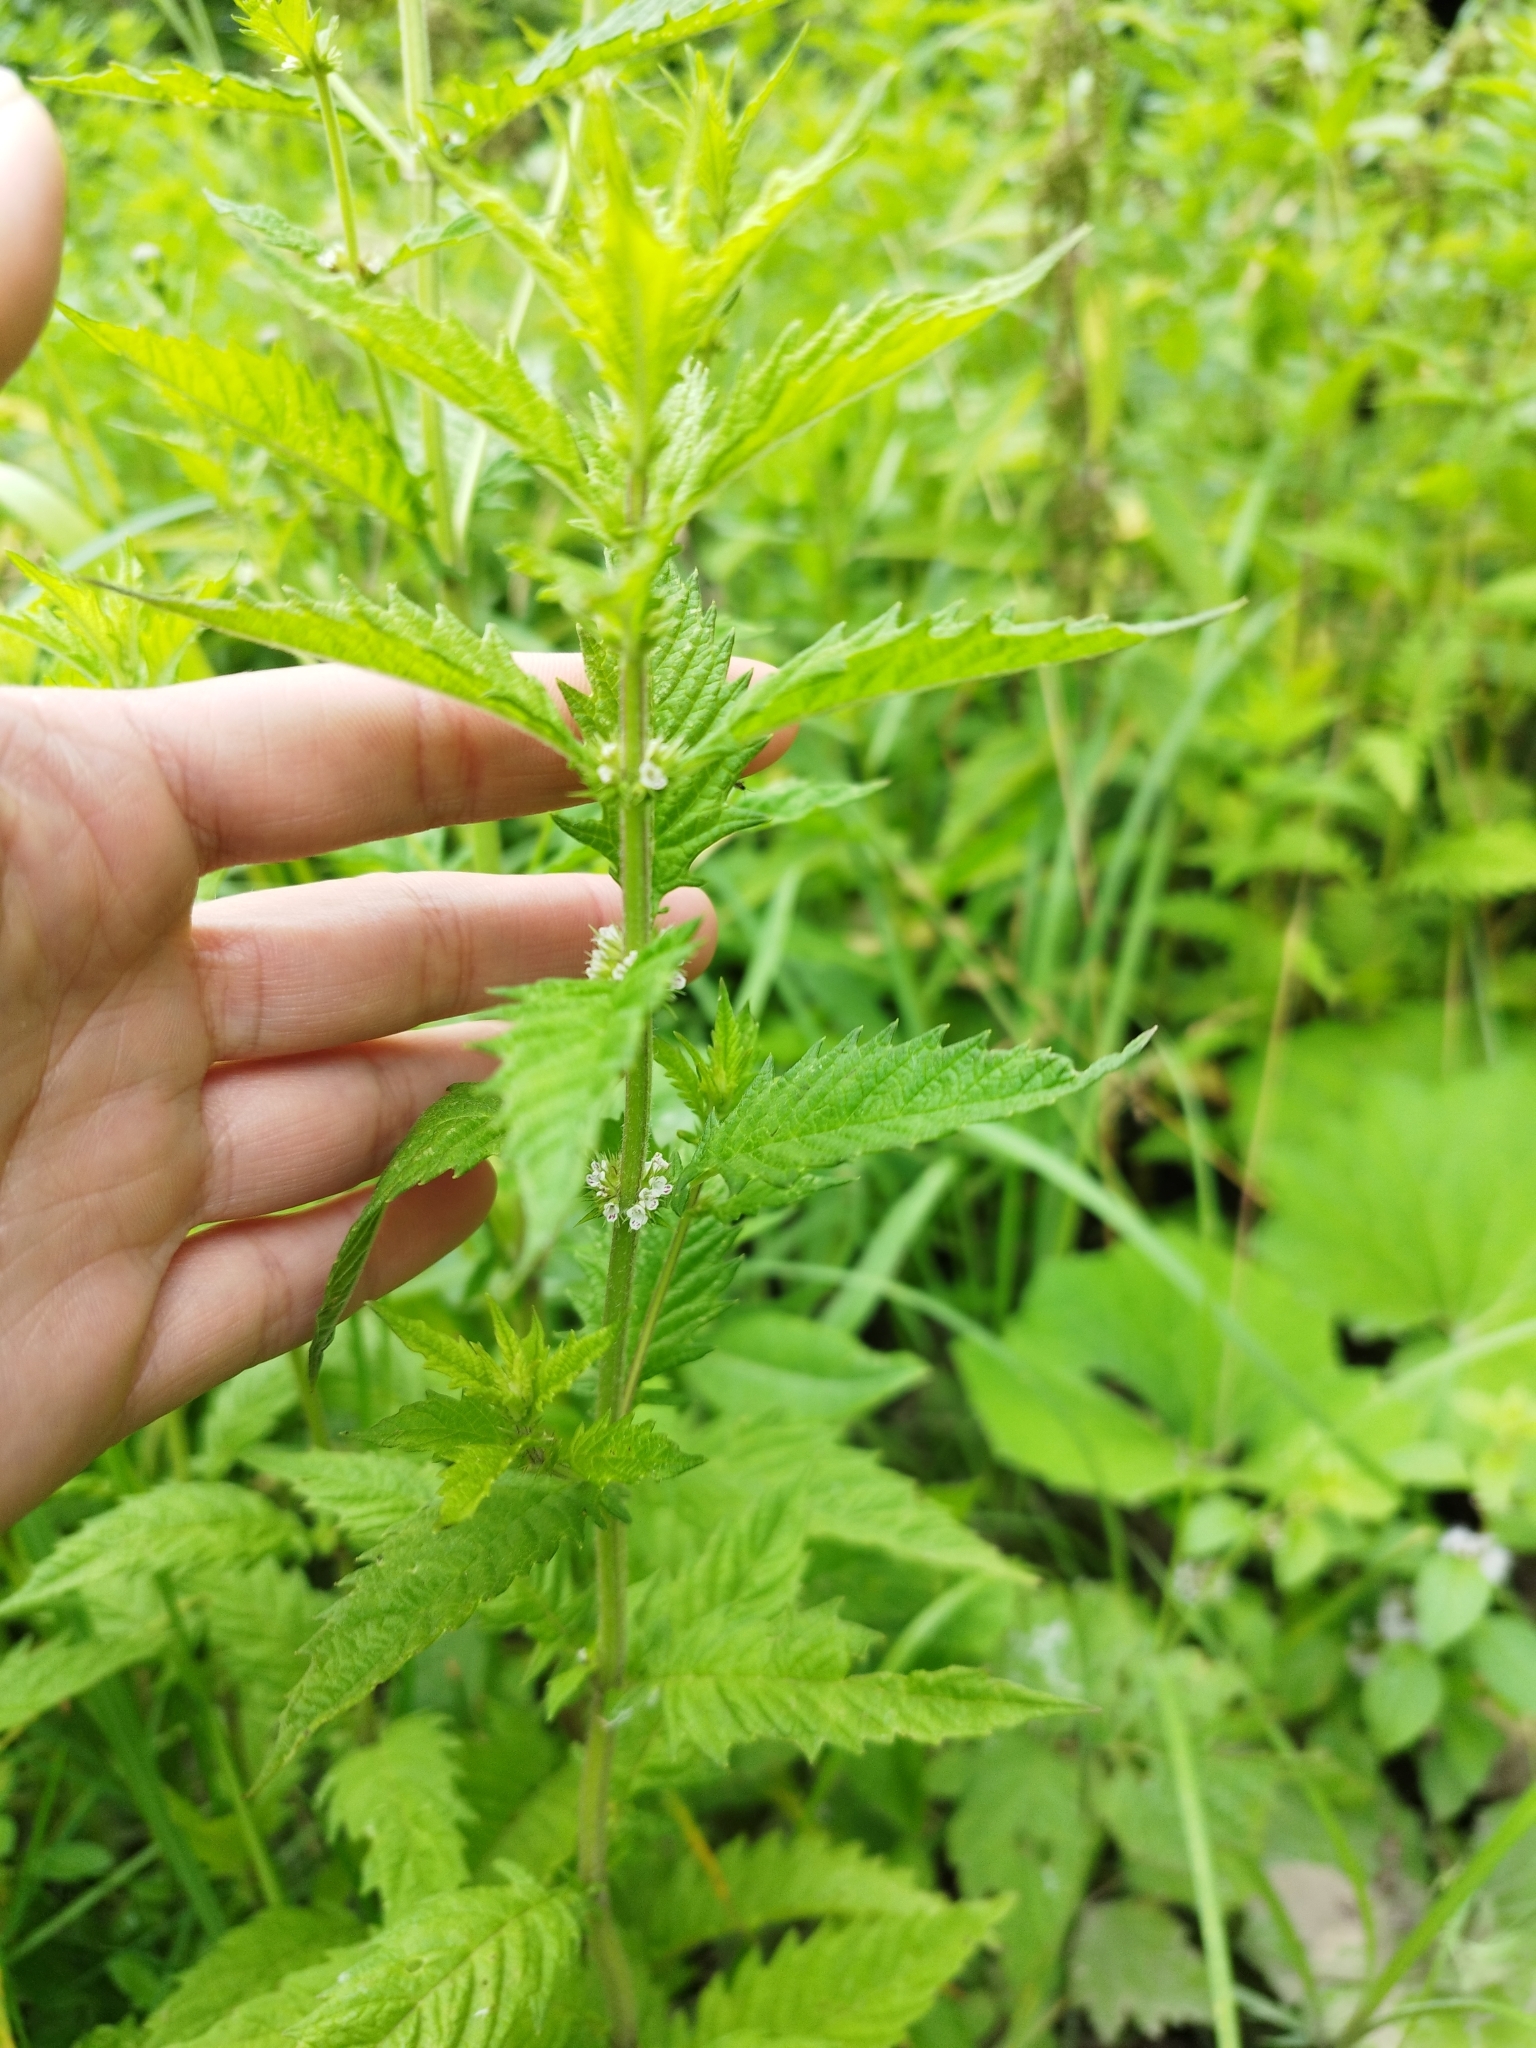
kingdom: Plantae
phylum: Tracheophyta
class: Magnoliopsida
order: Lamiales
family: Lamiaceae
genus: Lycopus
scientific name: Lycopus europaeus
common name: European bugleweed
